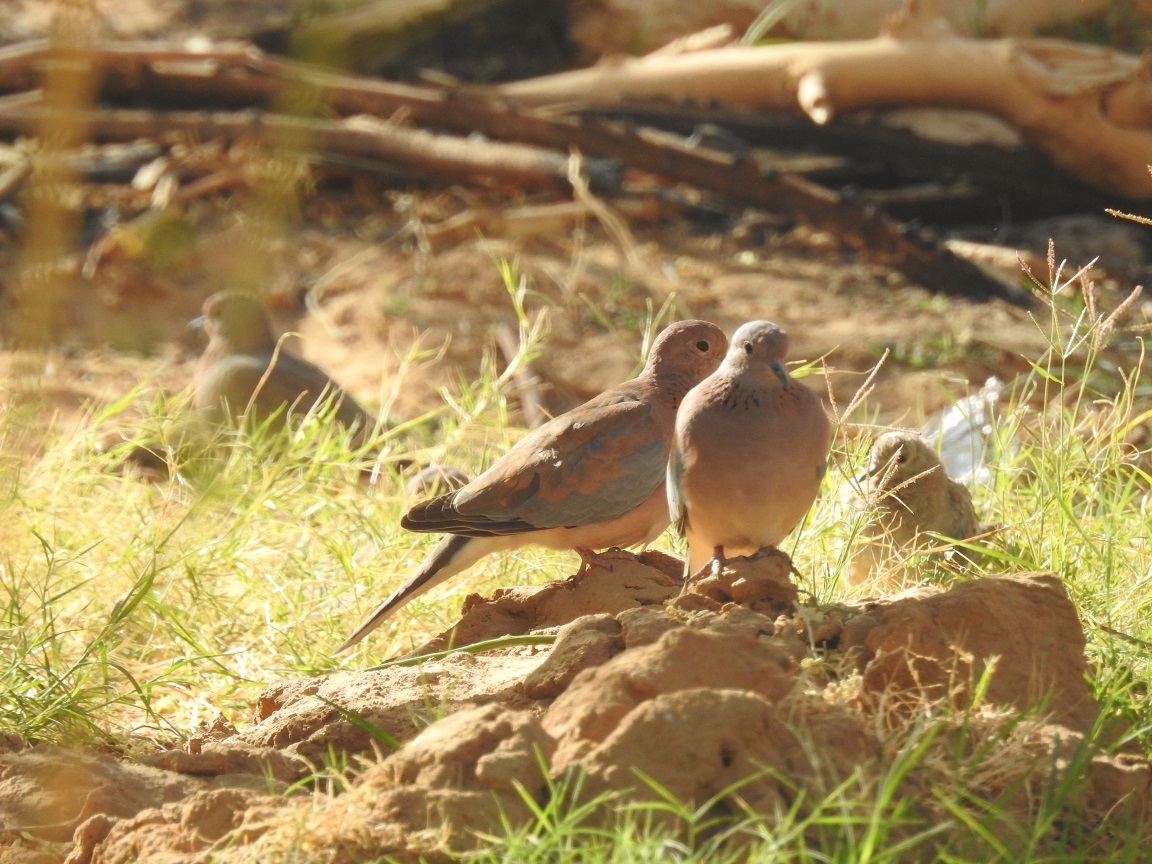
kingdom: Animalia
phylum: Chordata
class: Aves
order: Columbiformes
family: Columbidae
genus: Spilopelia
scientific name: Spilopelia senegalensis
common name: Laughing dove
